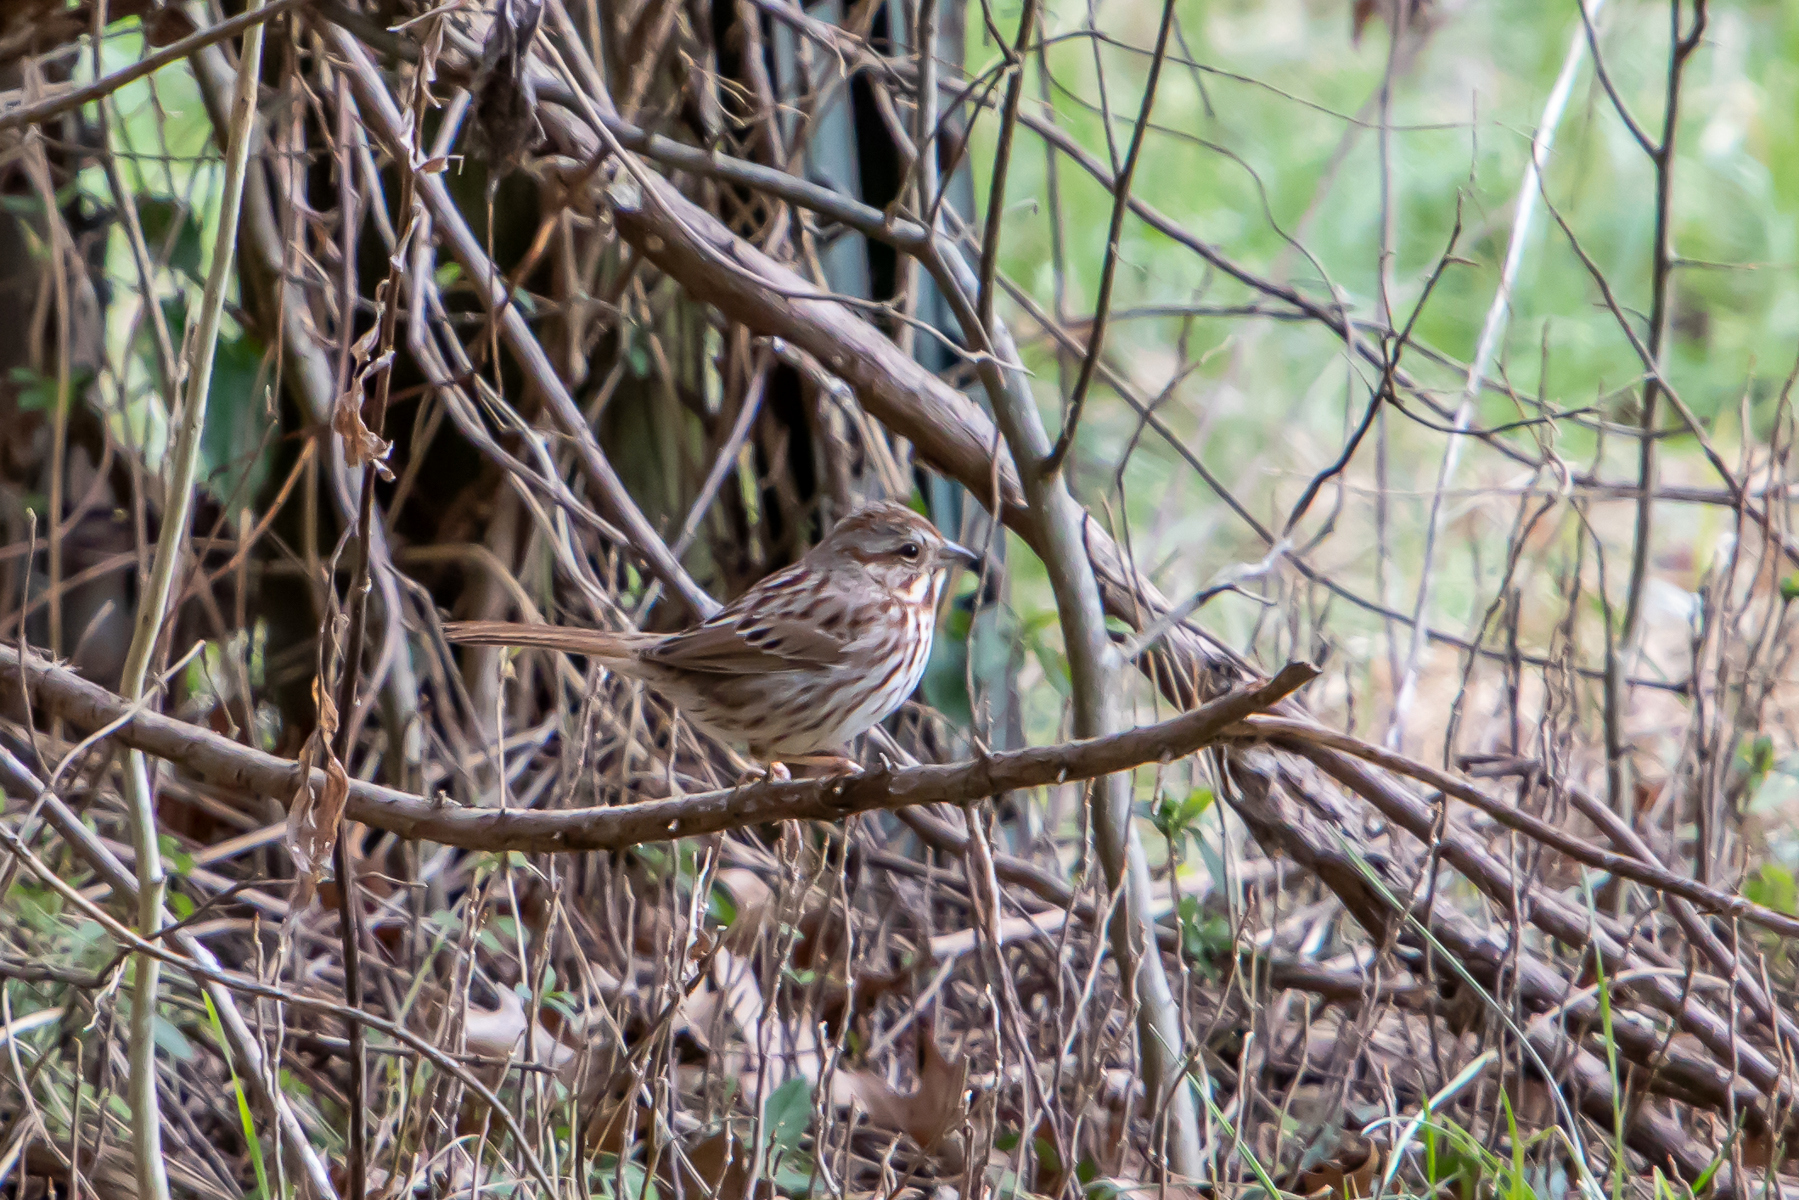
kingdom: Animalia
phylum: Chordata
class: Aves
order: Passeriformes
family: Passerellidae
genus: Melospiza
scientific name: Melospiza melodia
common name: Song sparrow
